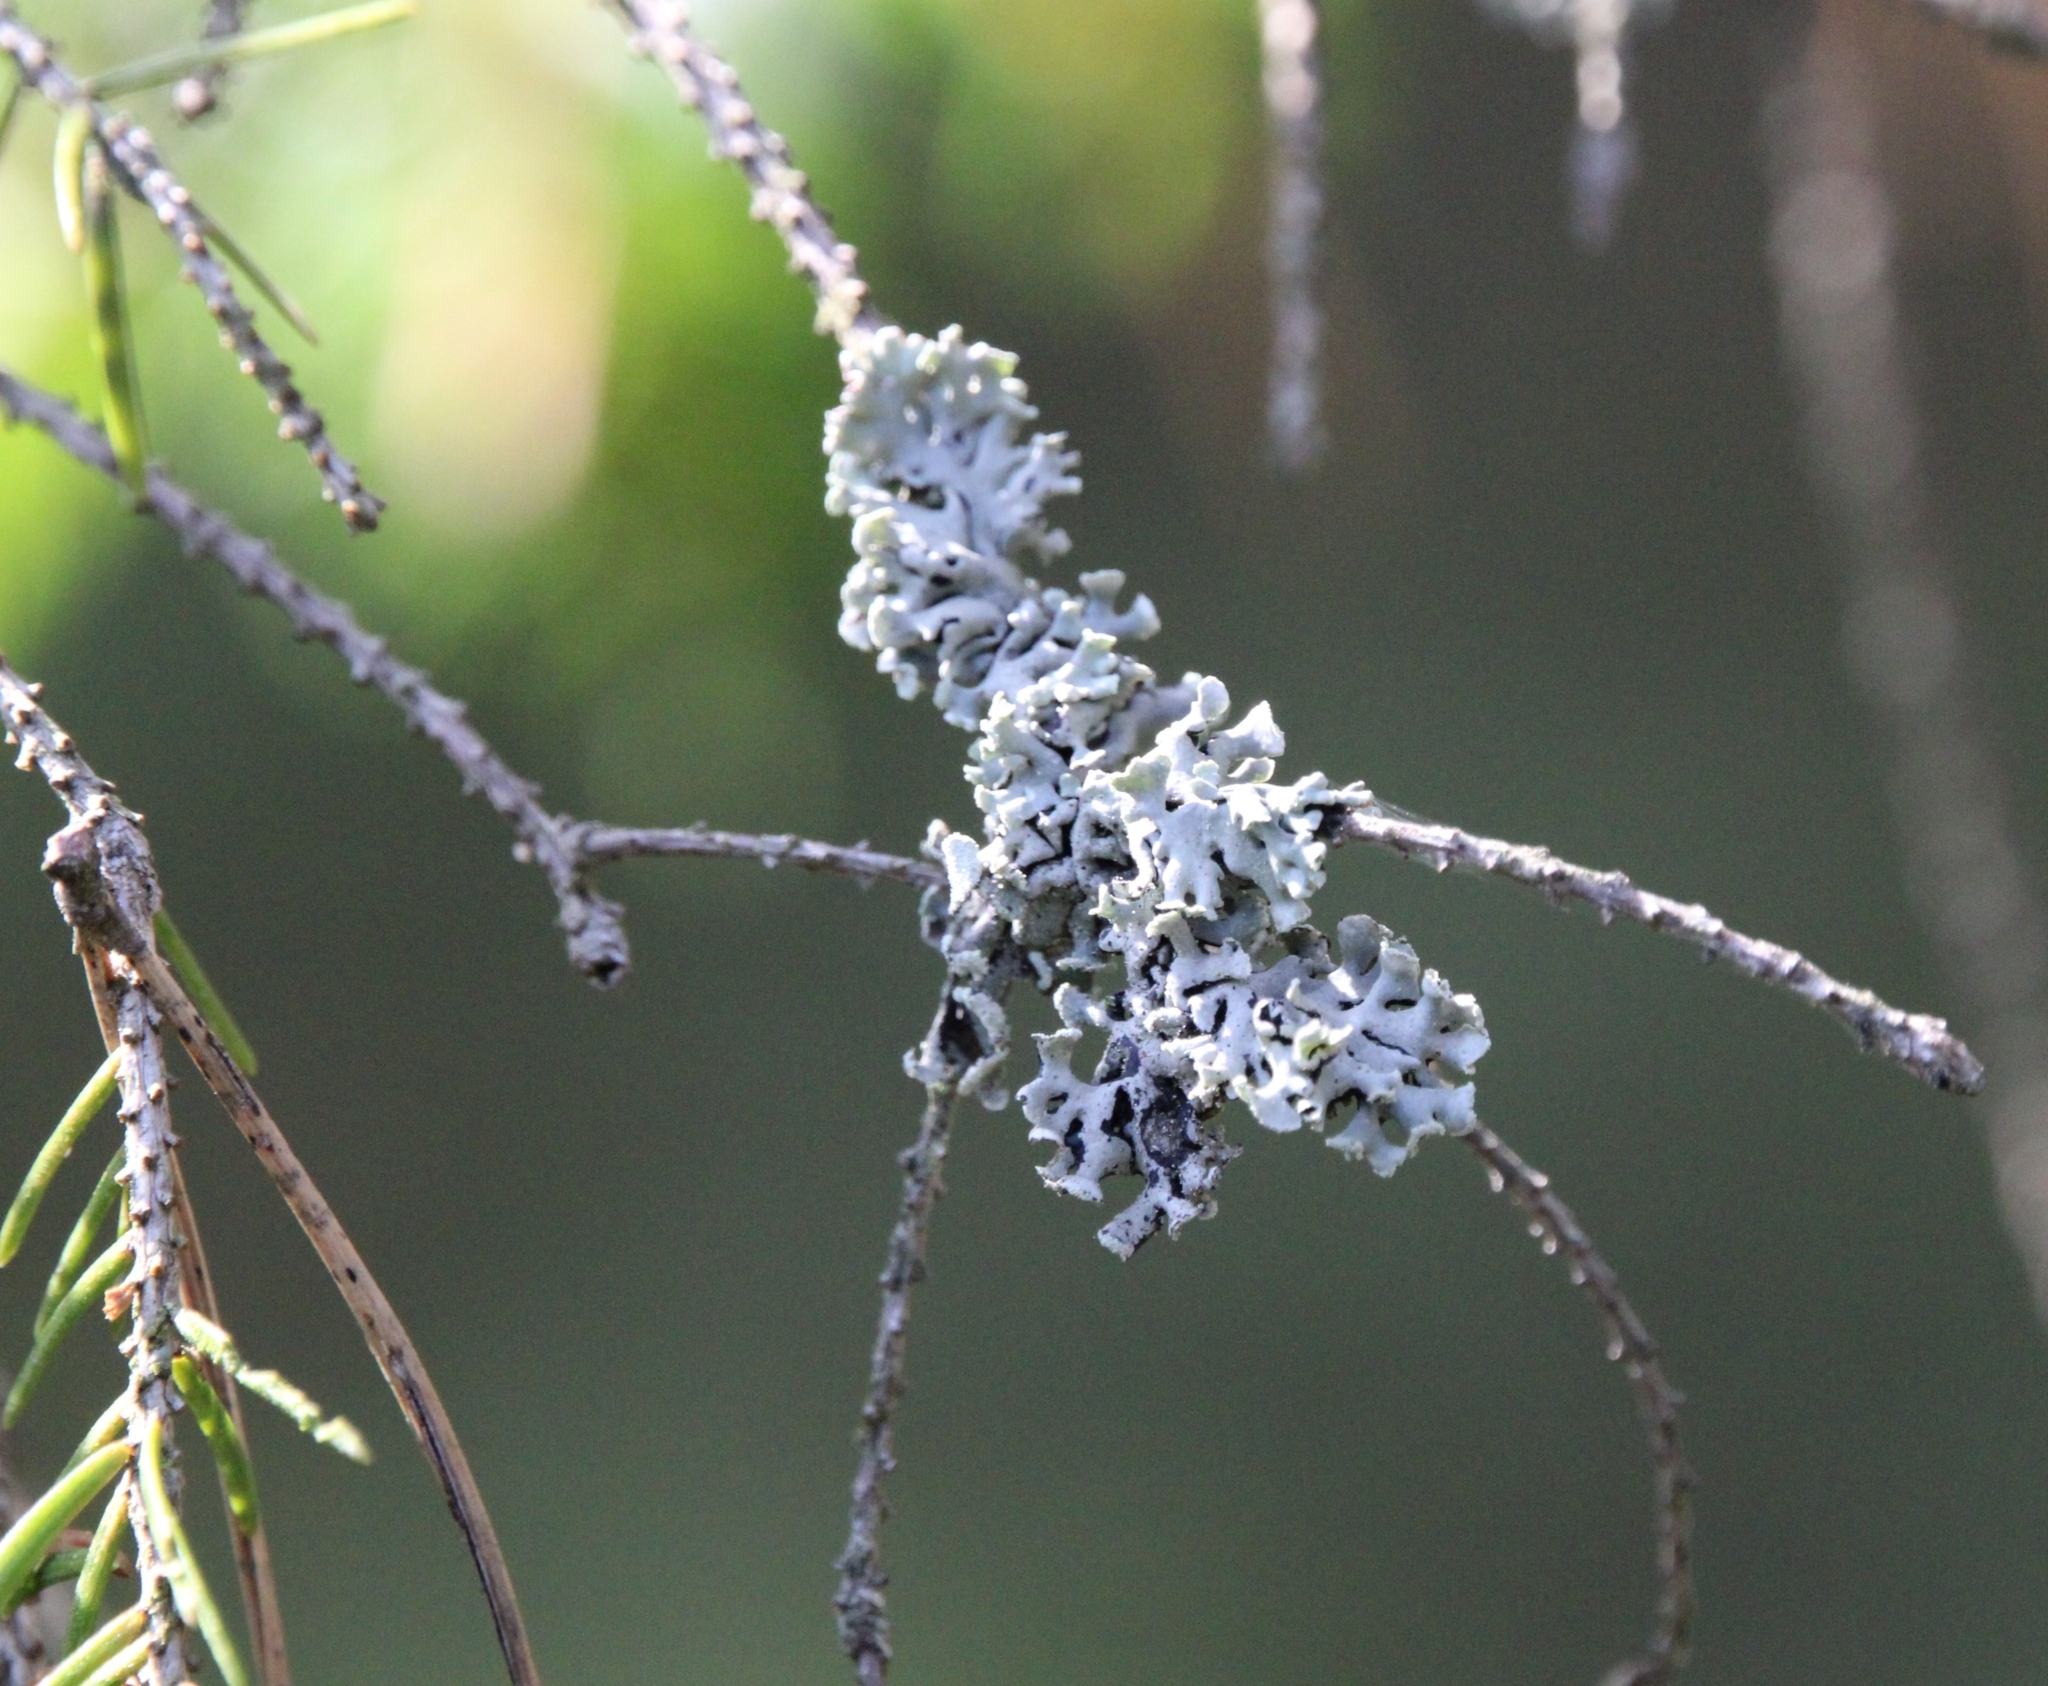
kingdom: Fungi
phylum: Ascomycota
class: Lecanoromycetes
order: Lecanorales
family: Parmeliaceae
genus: Hypogymnia
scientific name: Hypogymnia physodes
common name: Dark crottle
